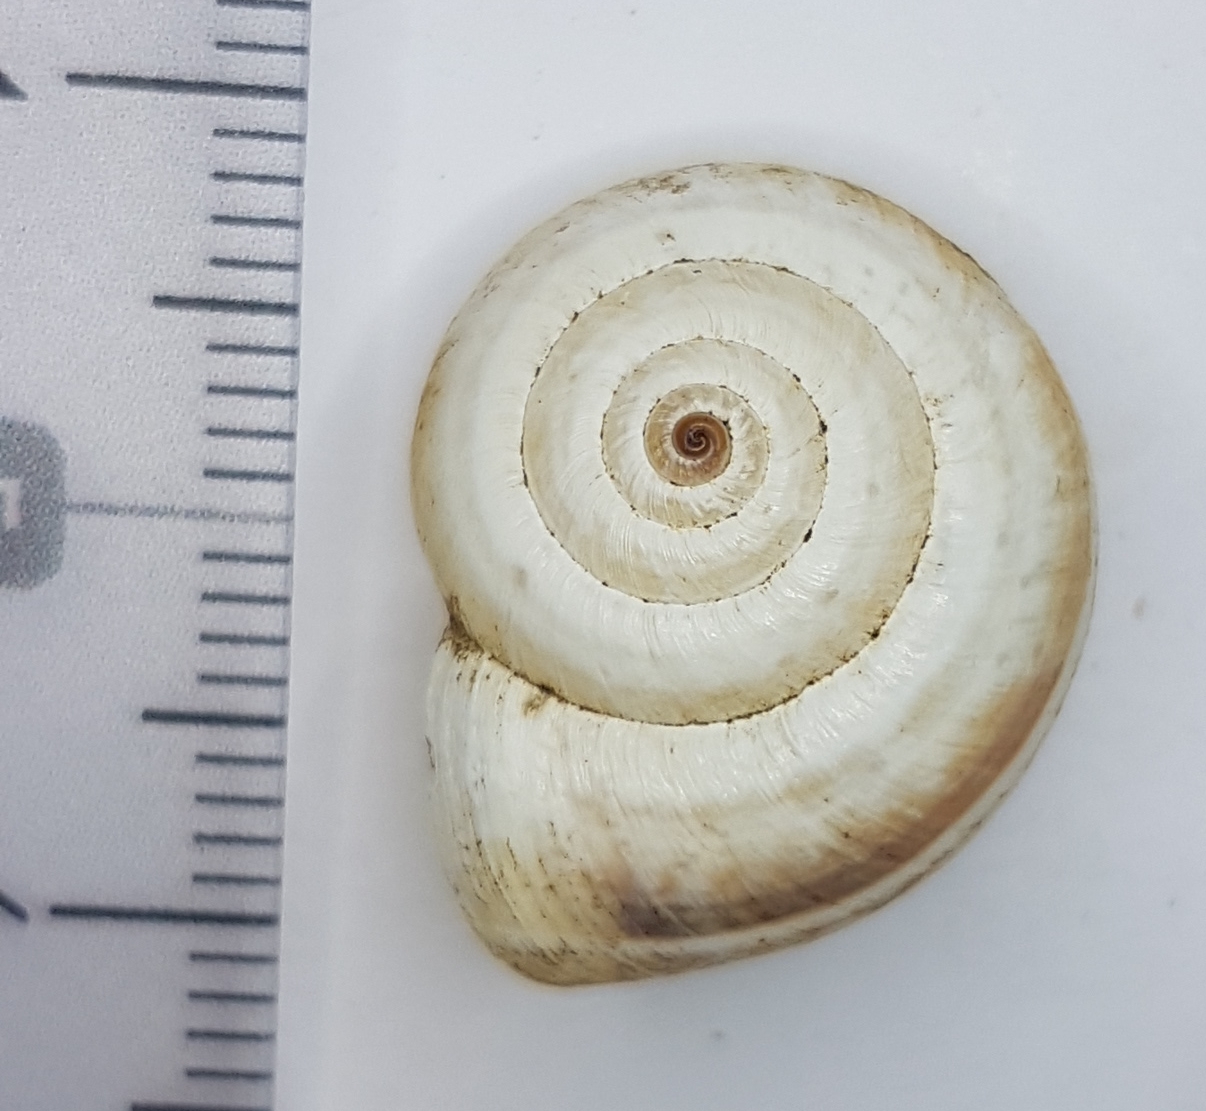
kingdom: Animalia
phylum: Mollusca
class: Gastropoda
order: Stylommatophora
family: Geomitridae
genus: Xerosecta
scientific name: Xerosecta arigonis
